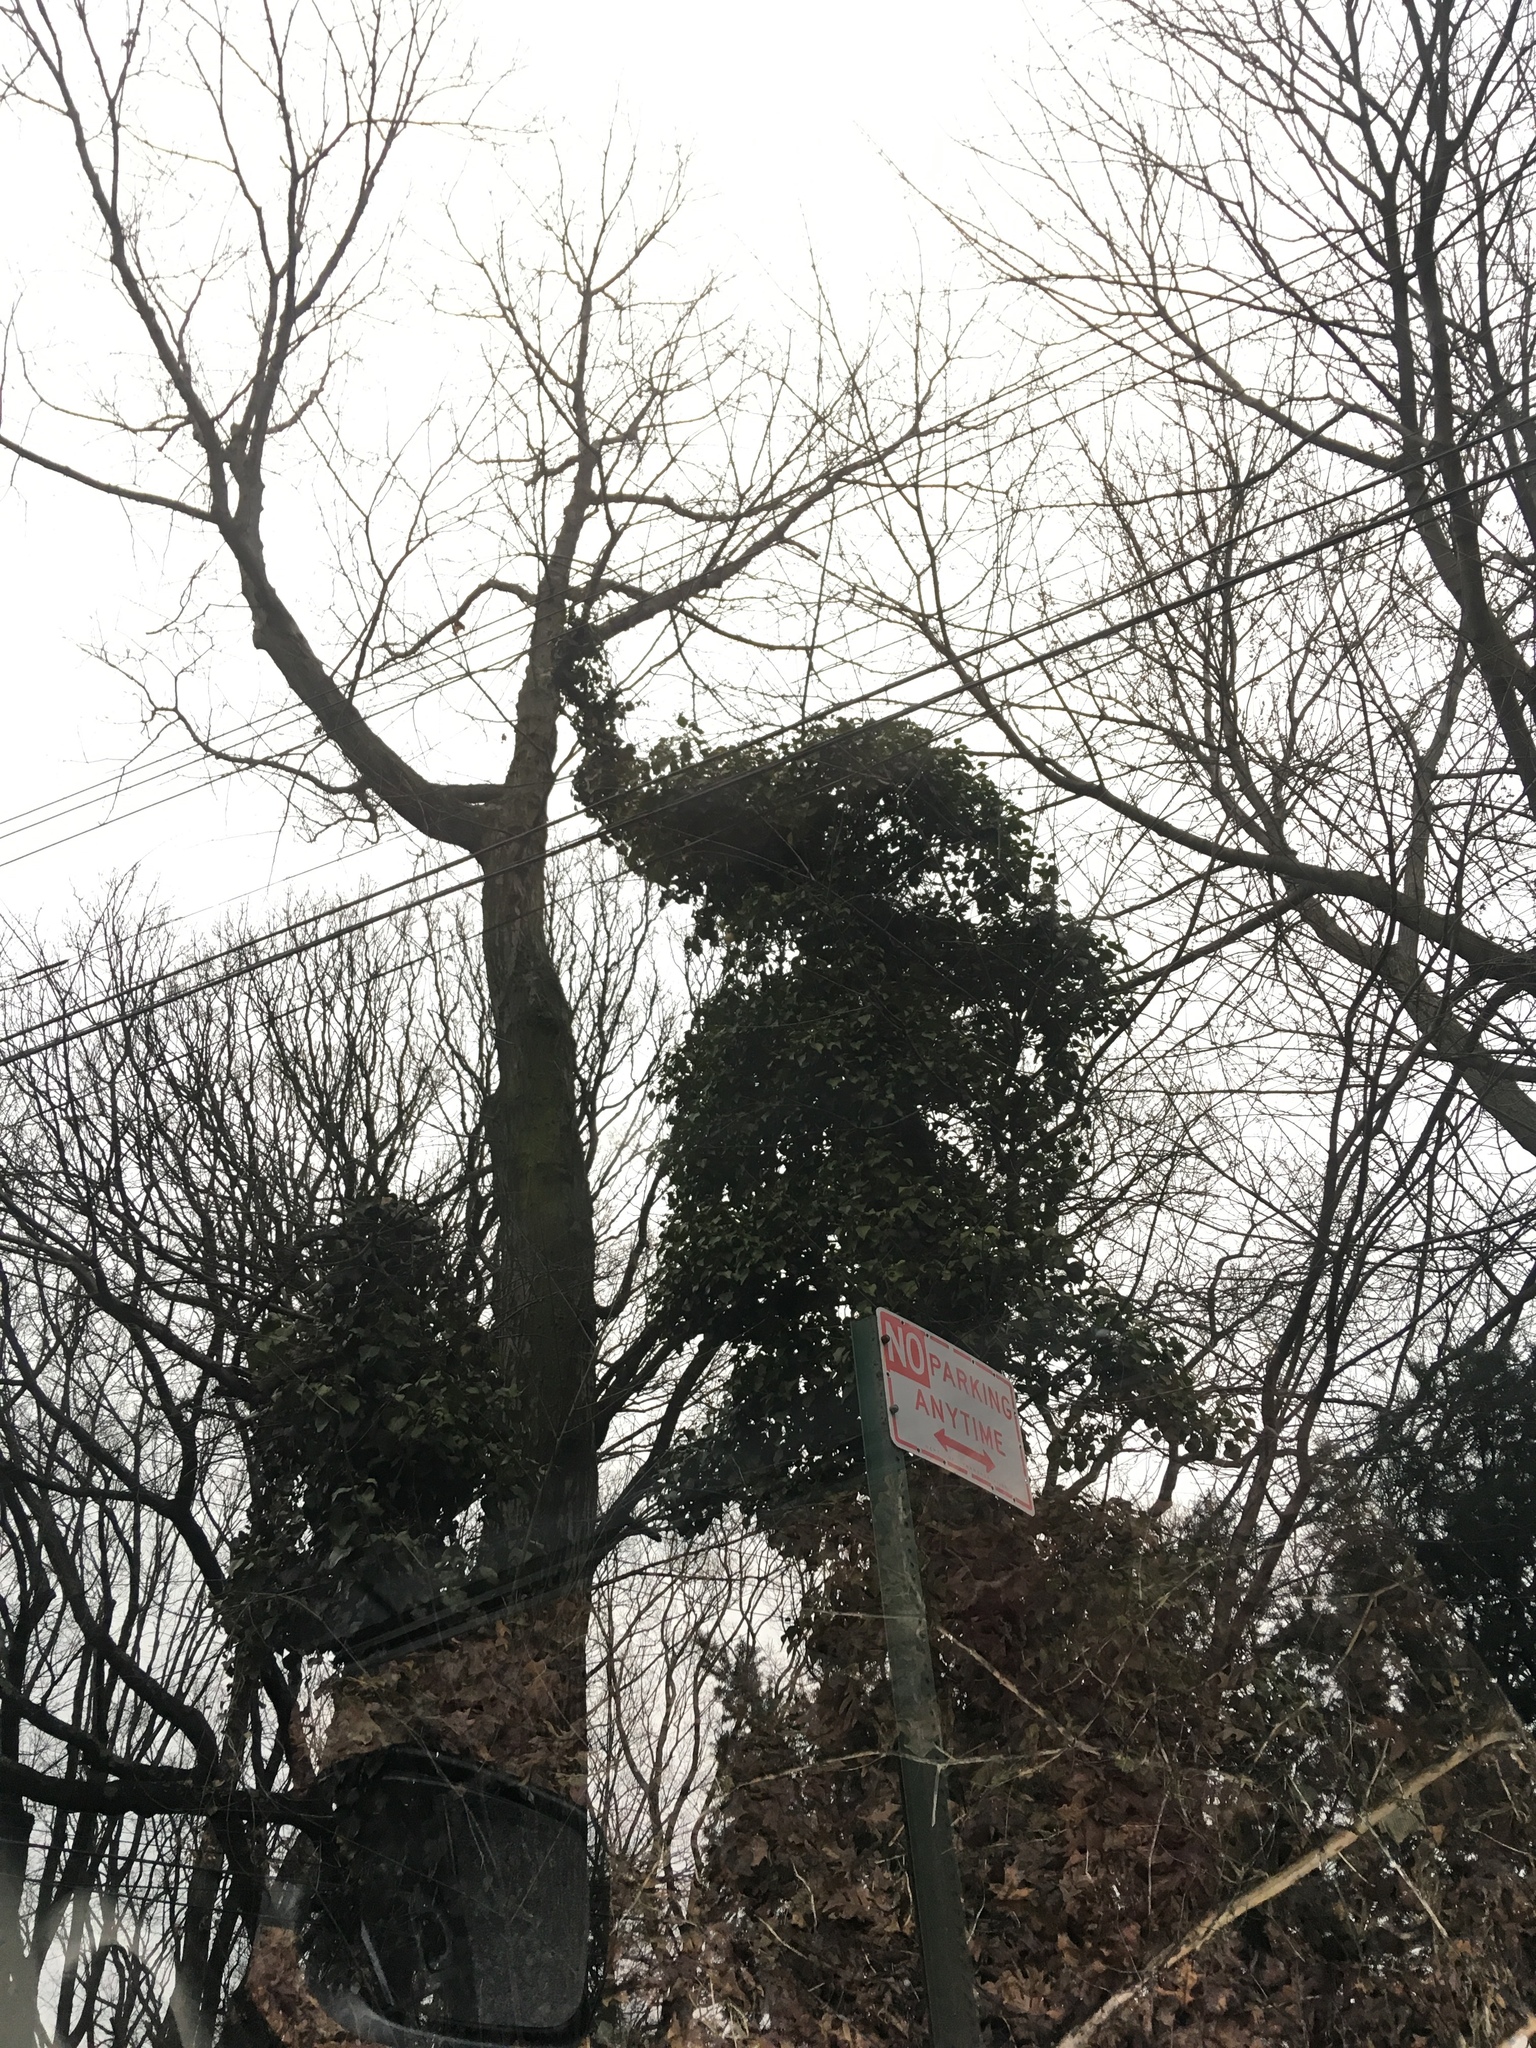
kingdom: Plantae
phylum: Tracheophyta
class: Magnoliopsida
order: Apiales
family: Araliaceae
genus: Hedera
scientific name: Hedera helix
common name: Ivy
